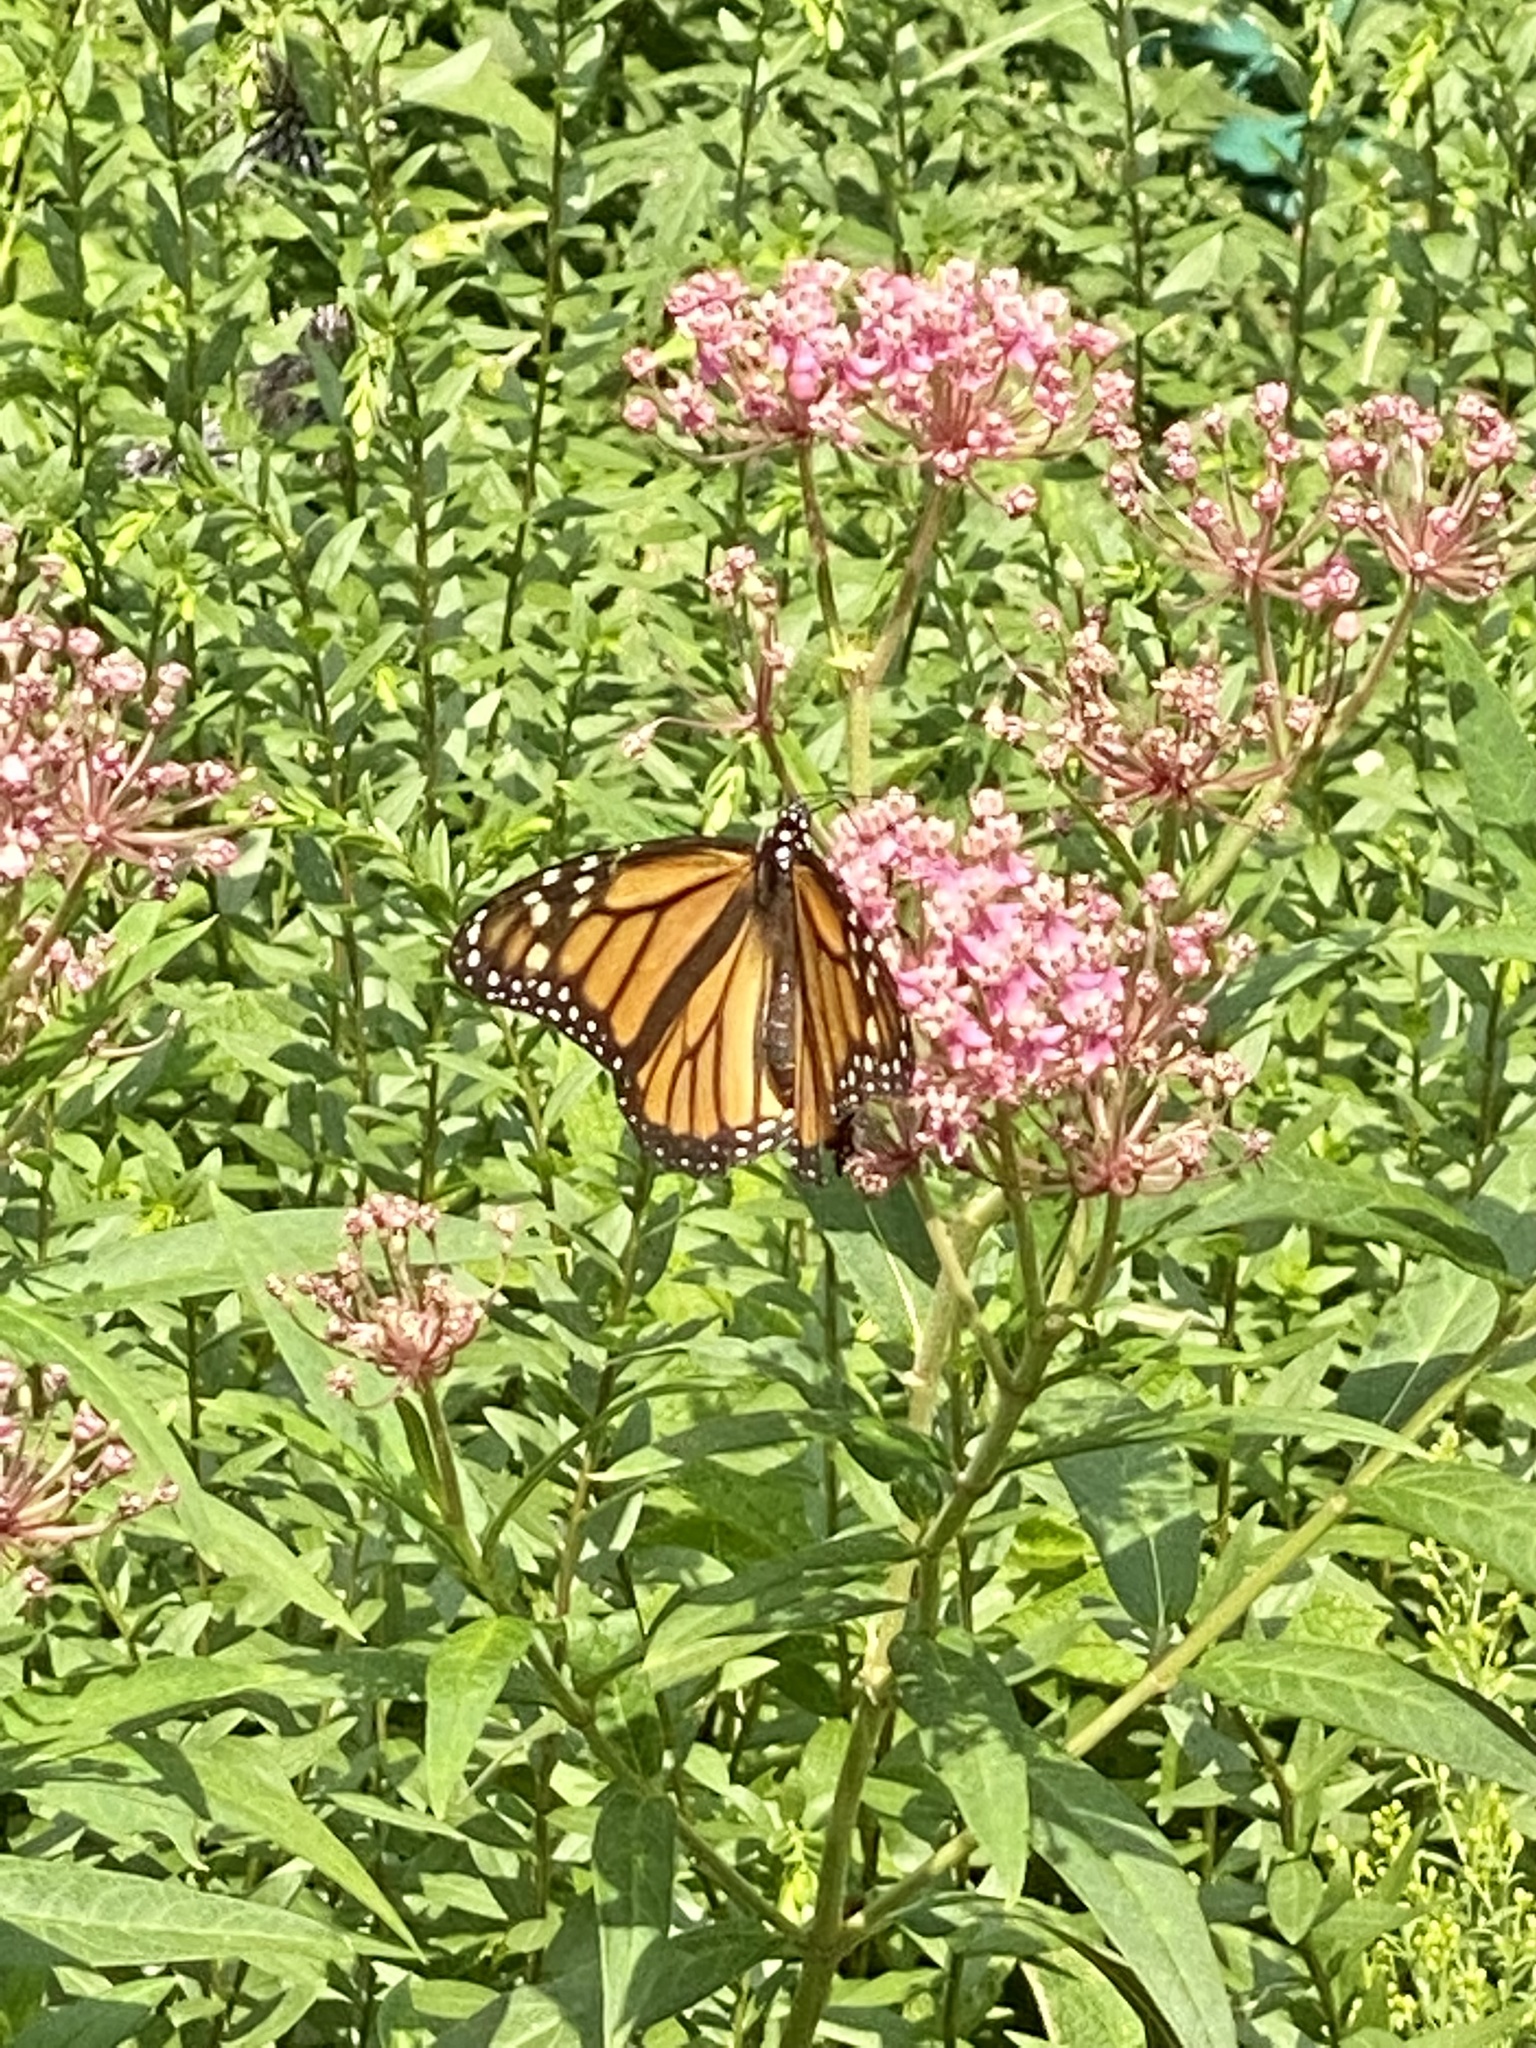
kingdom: Animalia
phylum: Arthropoda
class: Insecta
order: Lepidoptera
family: Nymphalidae
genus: Danaus
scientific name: Danaus plexippus
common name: Monarch
